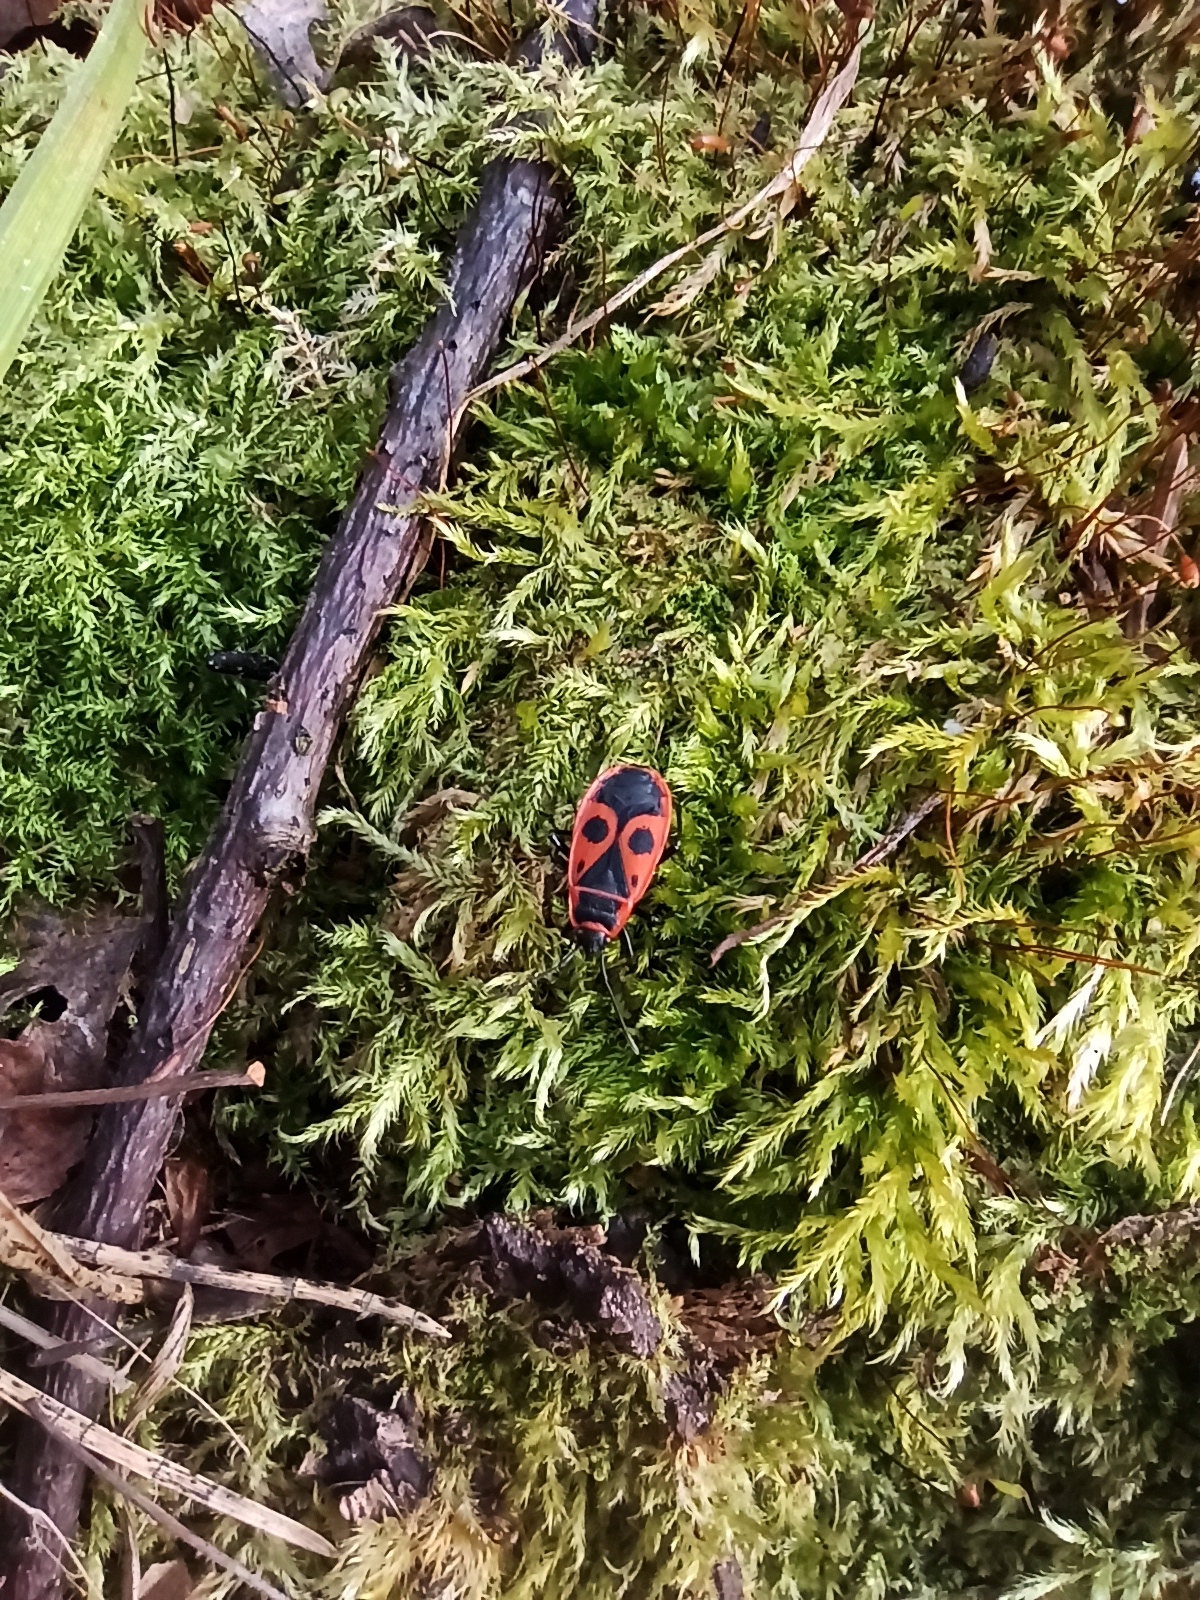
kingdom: Animalia
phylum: Arthropoda
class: Insecta
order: Hemiptera
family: Pyrrhocoridae
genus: Pyrrhocoris
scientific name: Pyrrhocoris apterus
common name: Firebug
